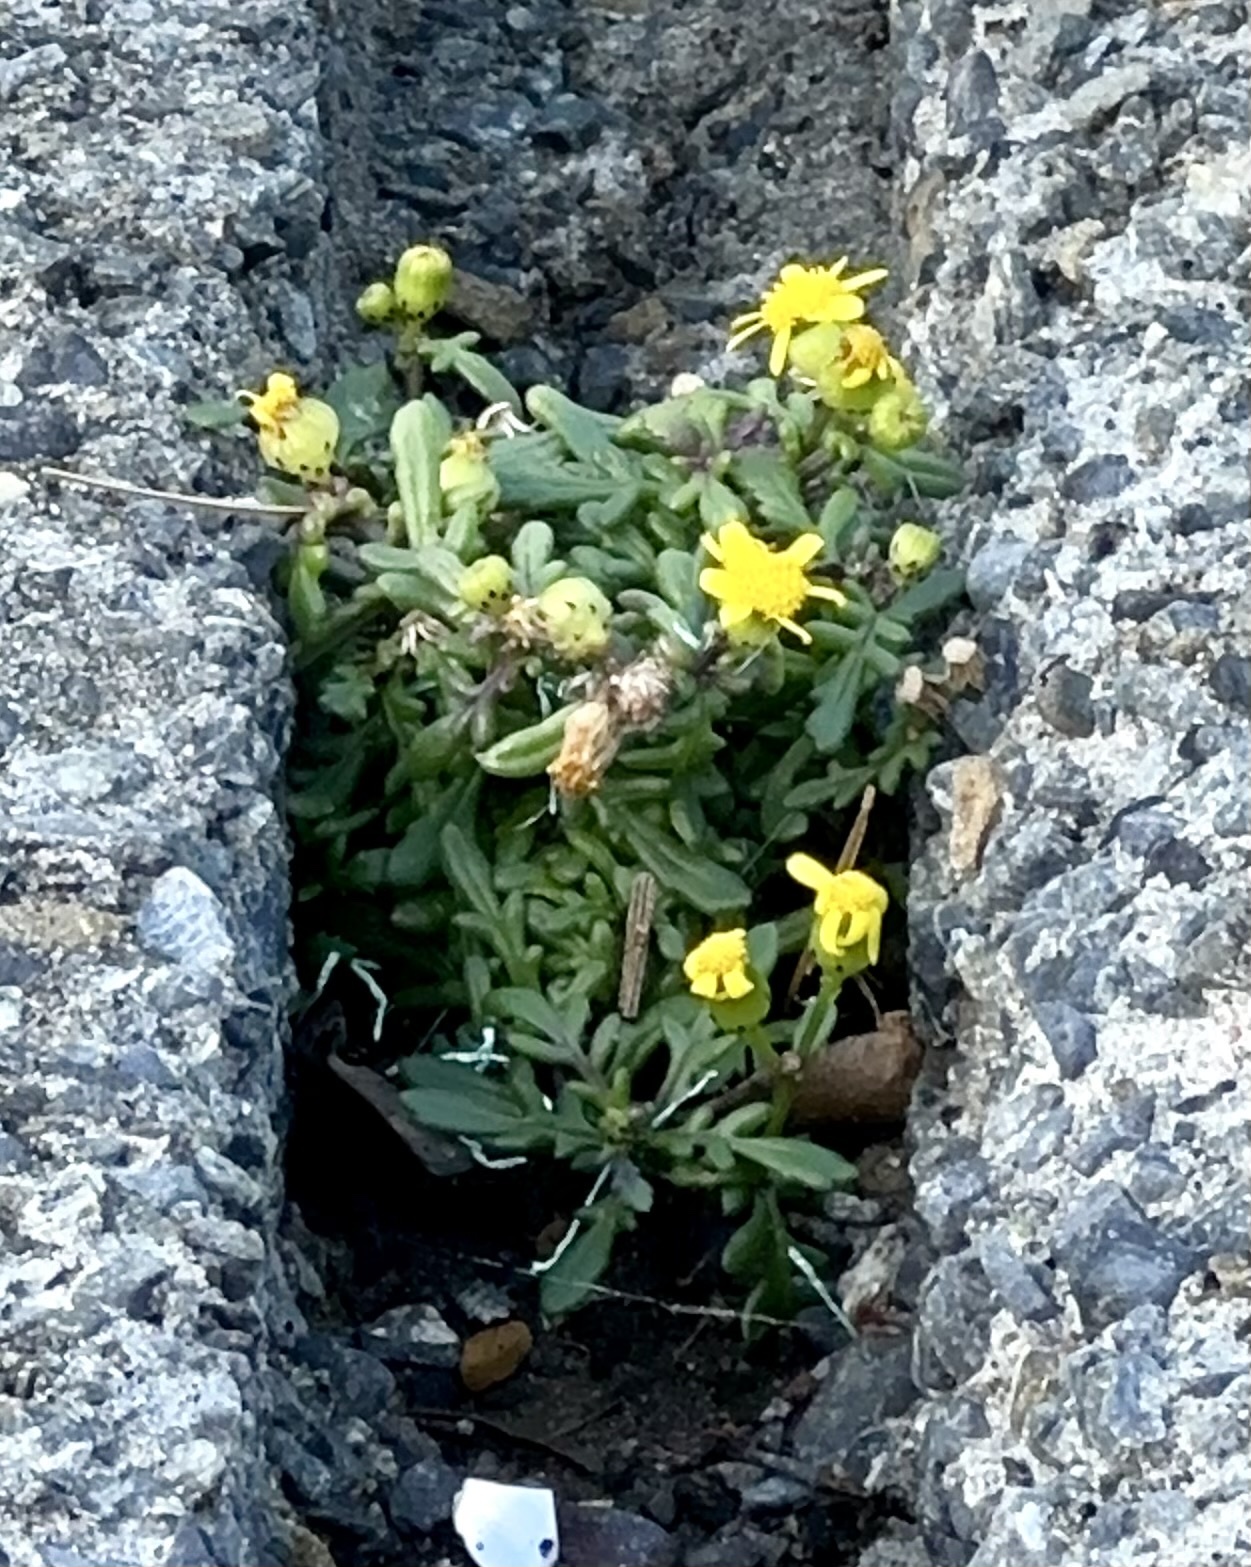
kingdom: Plantae
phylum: Tracheophyta
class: Magnoliopsida
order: Asterales
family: Asteraceae
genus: Senecio
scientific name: Senecio lautus
